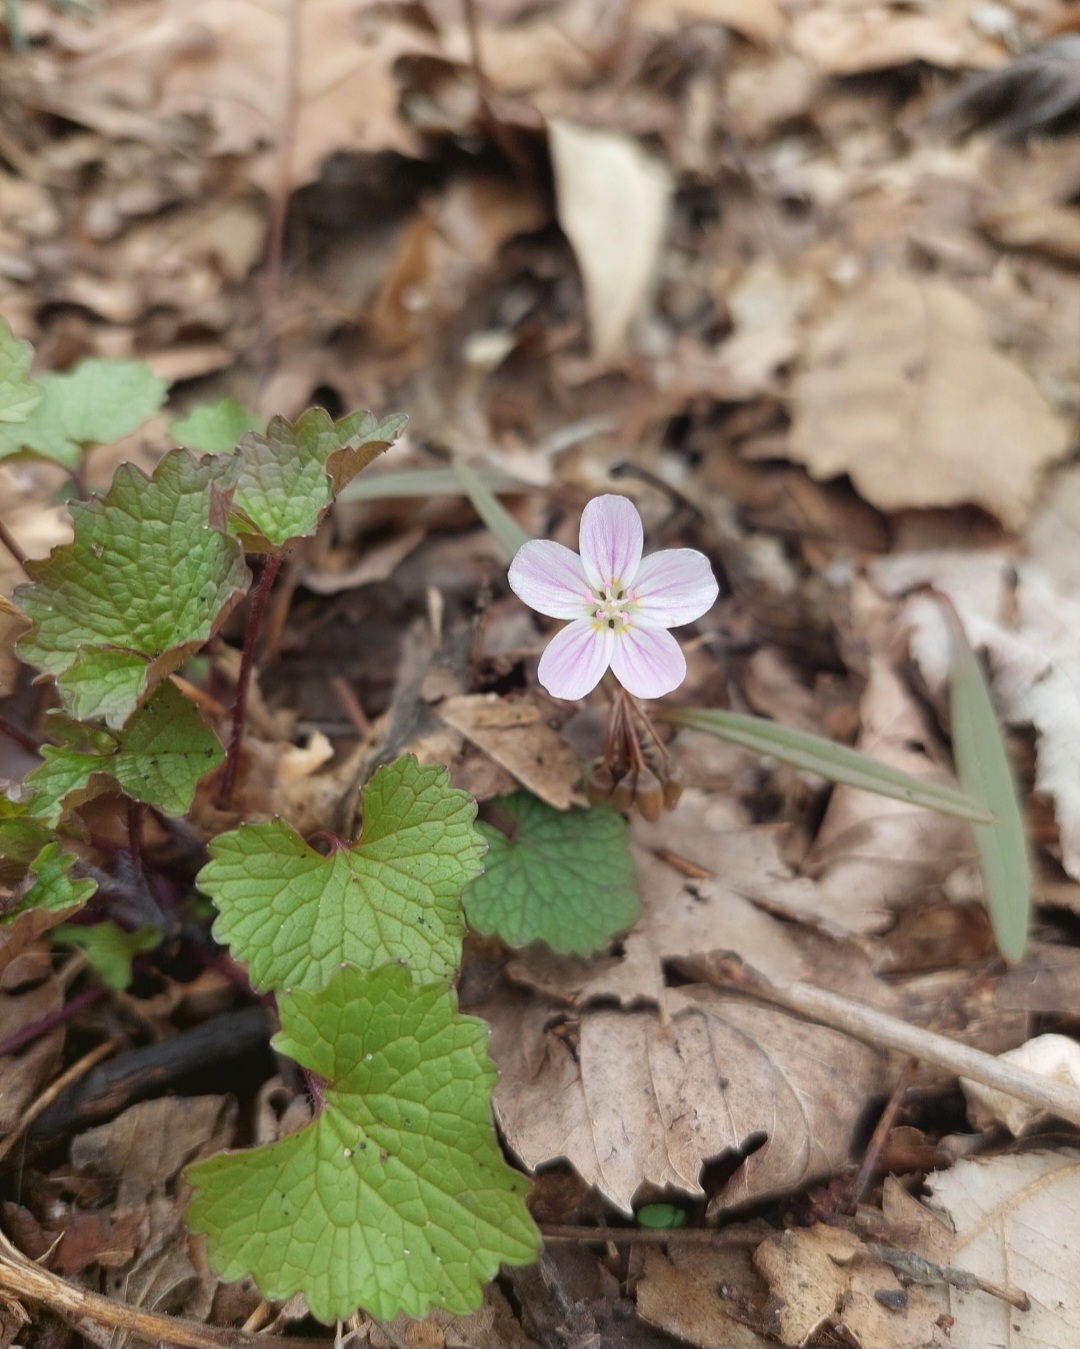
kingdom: Plantae
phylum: Tracheophyta
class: Magnoliopsida
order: Caryophyllales
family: Montiaceae
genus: Claytonia
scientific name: Claytonia virginica
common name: Virginia springbeauty
